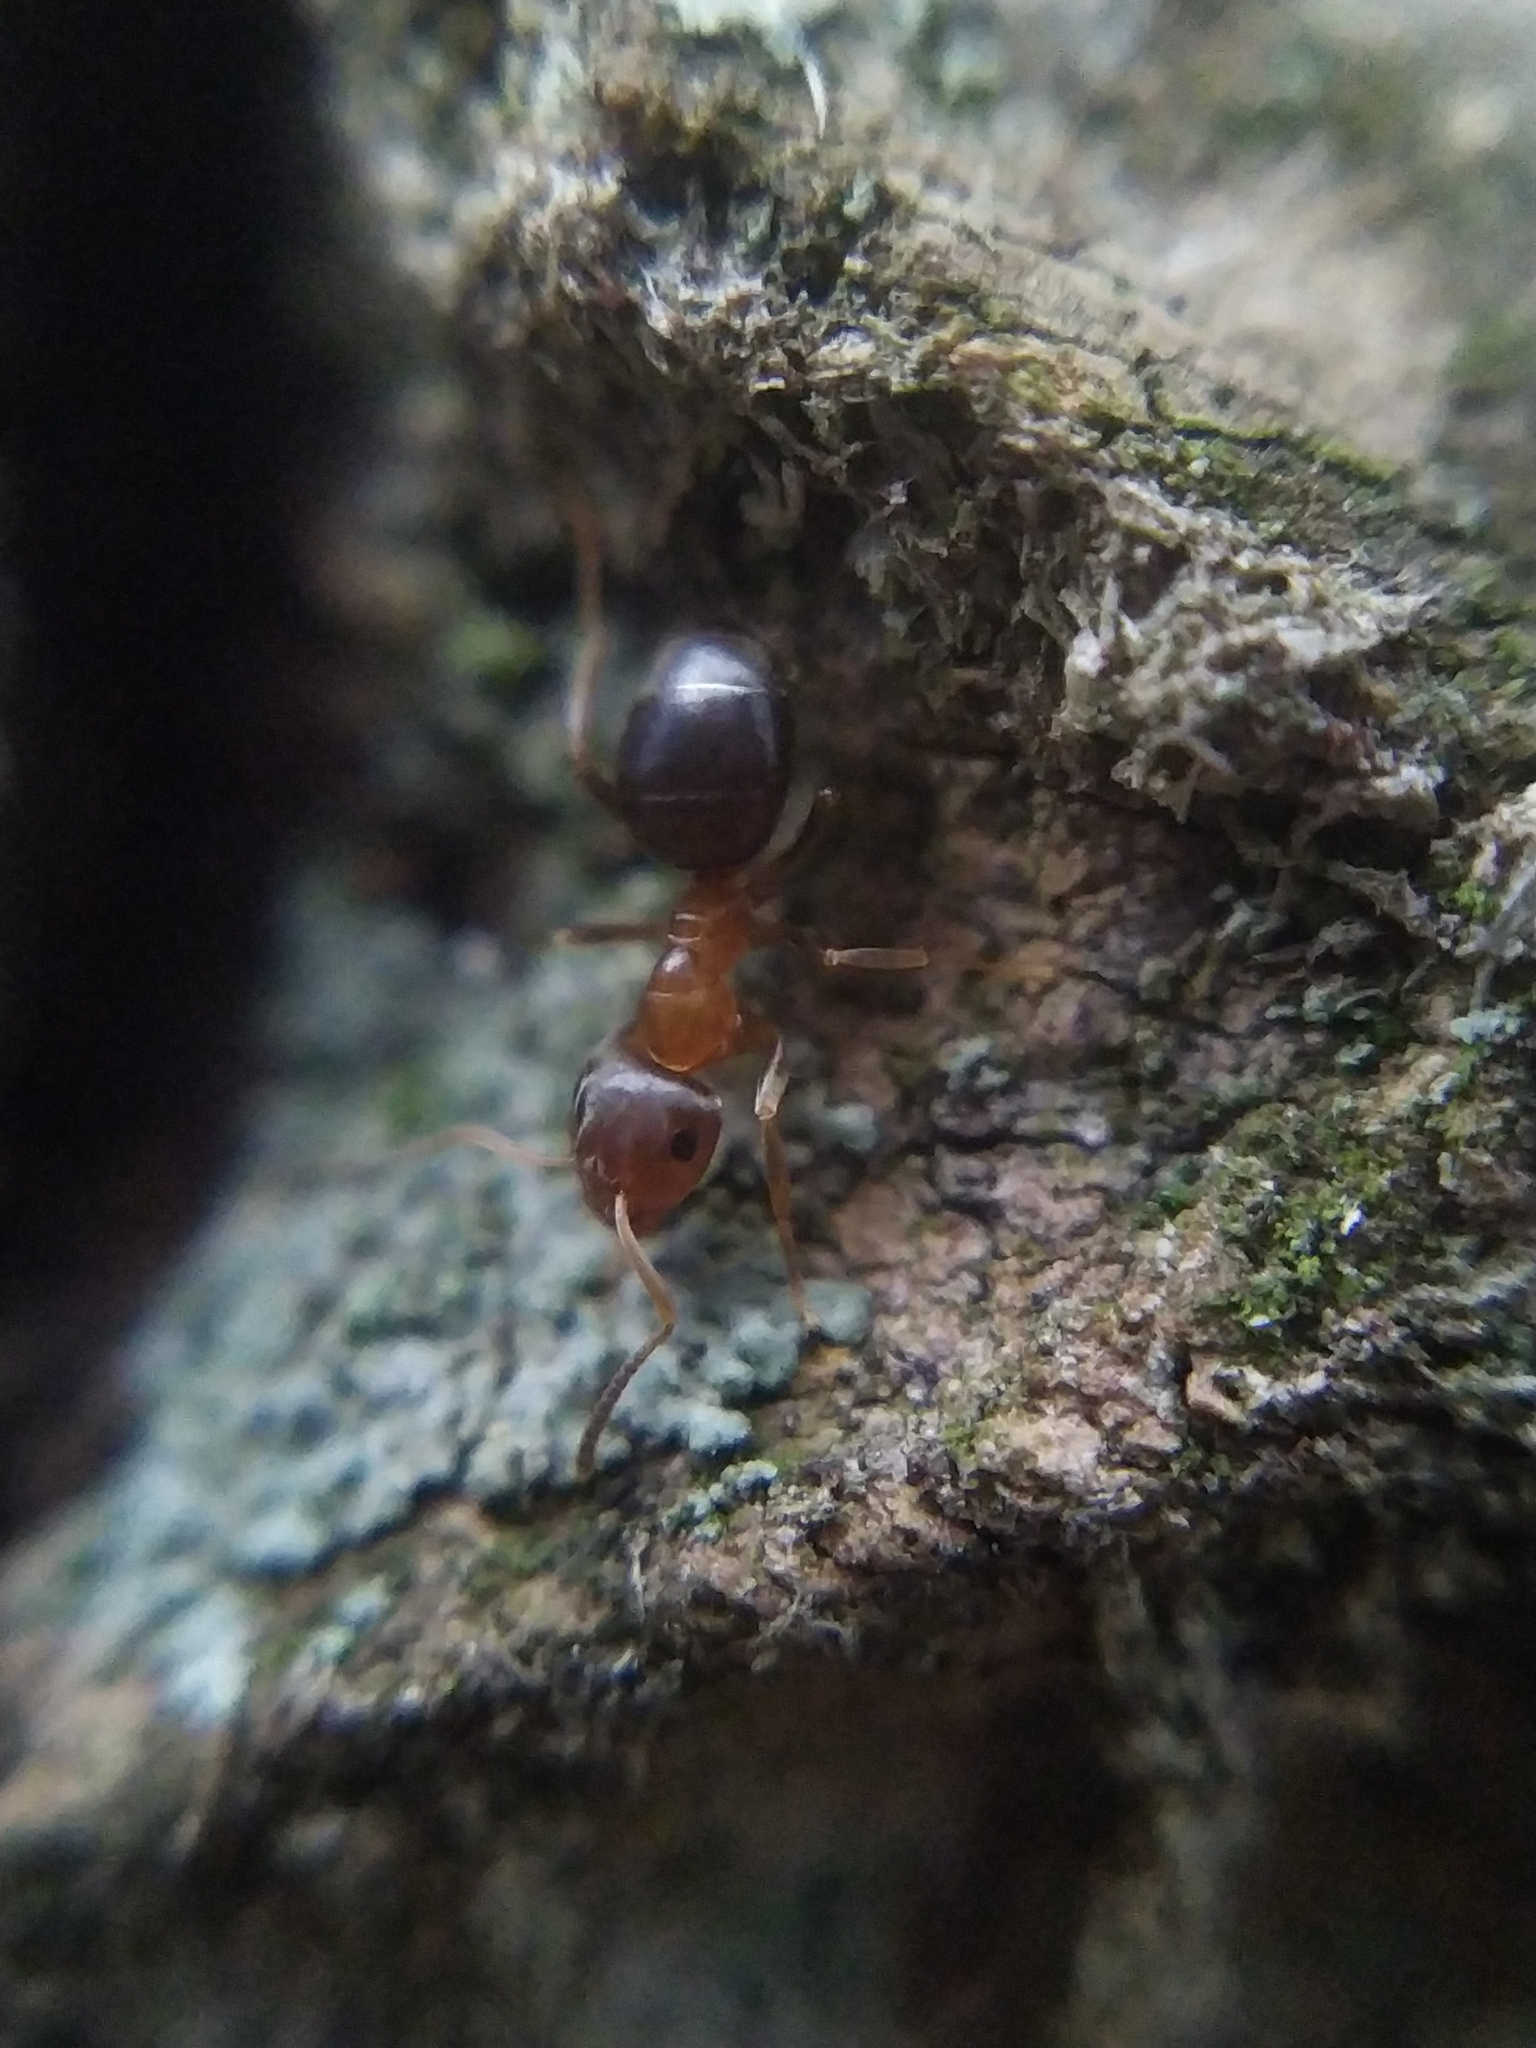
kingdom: Animalia
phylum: Arthropoda
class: Insecta
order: Hymenoptera
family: Formicidae
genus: Lasius
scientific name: Lasius brunneus
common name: Brown ant
